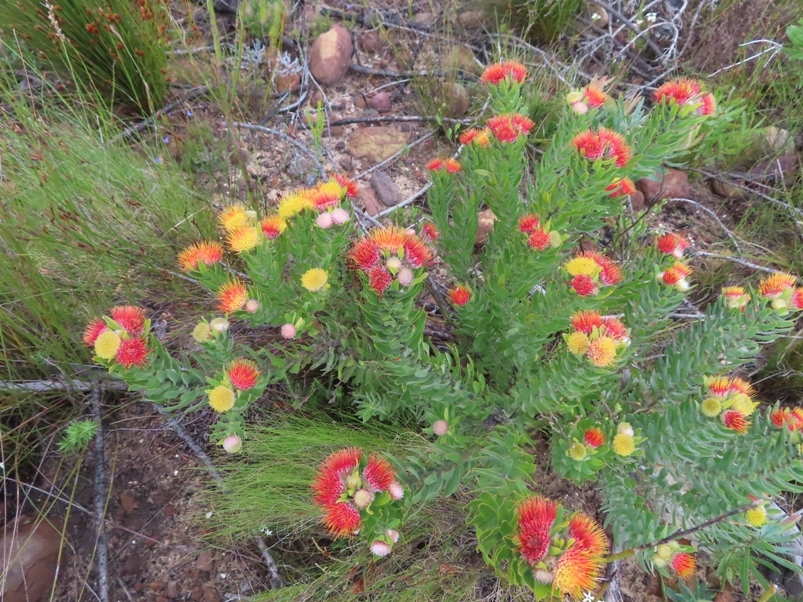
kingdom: Plantae
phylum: Tracheophyta
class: Magnoliopsida
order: Proteales
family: Proteaceae
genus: Leucospermum
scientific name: Leucospermum oleifolium
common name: Matches
